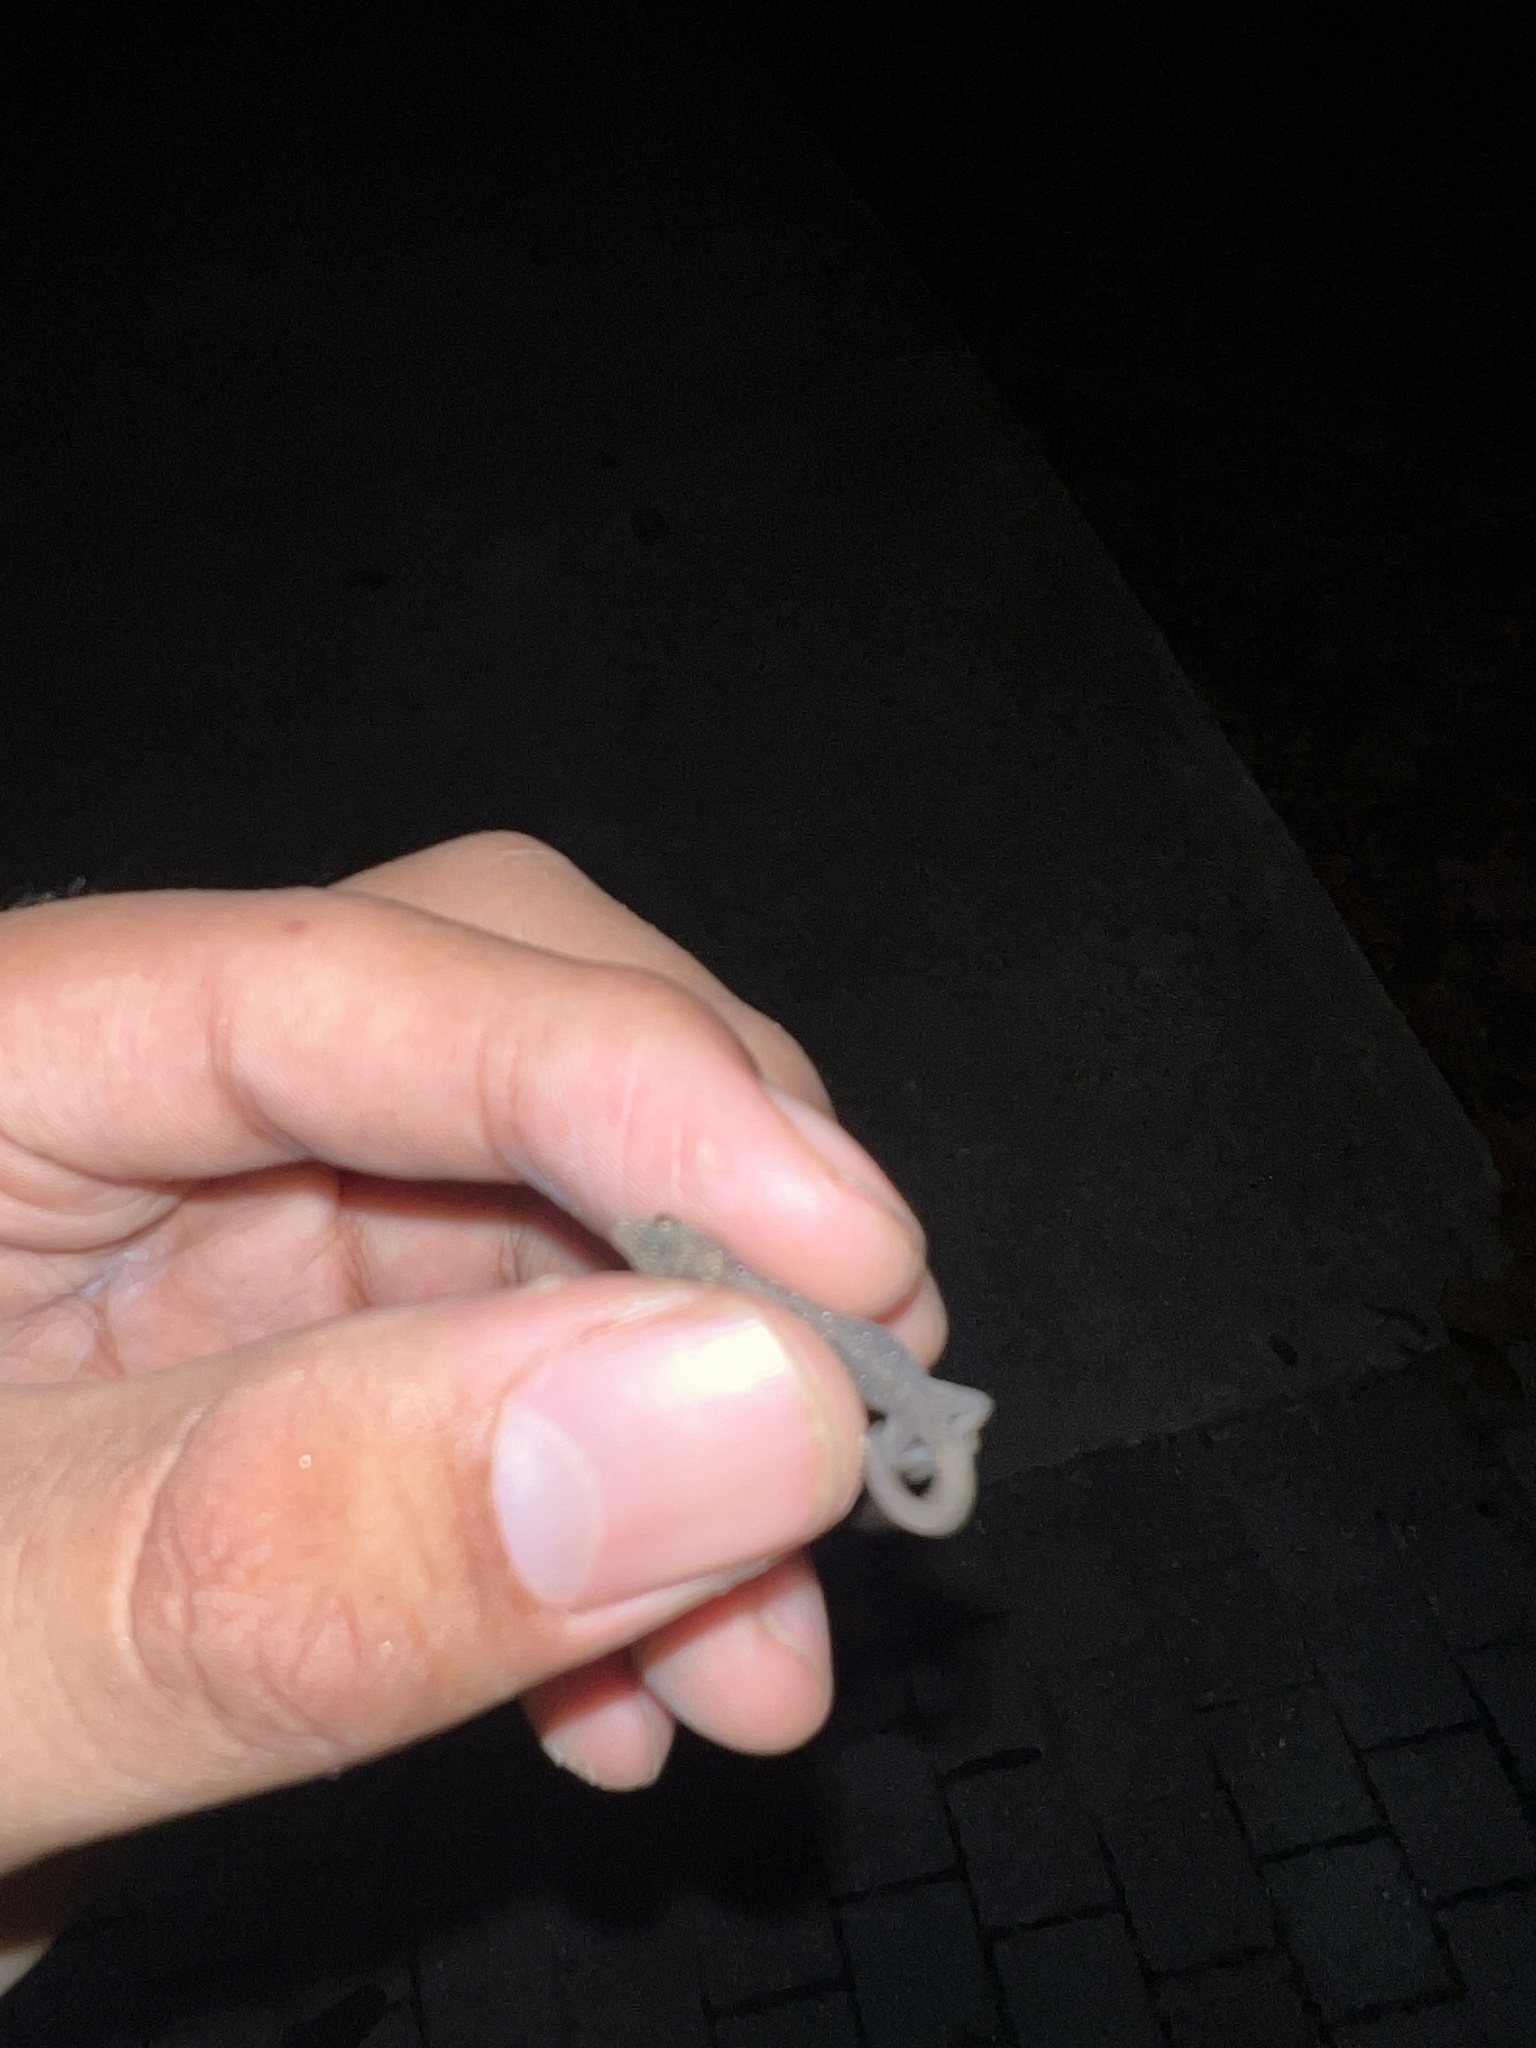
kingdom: Animalia
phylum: Chordata
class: Squamata
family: Gekkonidae
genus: Hemidactylus
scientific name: Hemidactylus parvimaculatus
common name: Spotted house gecko
